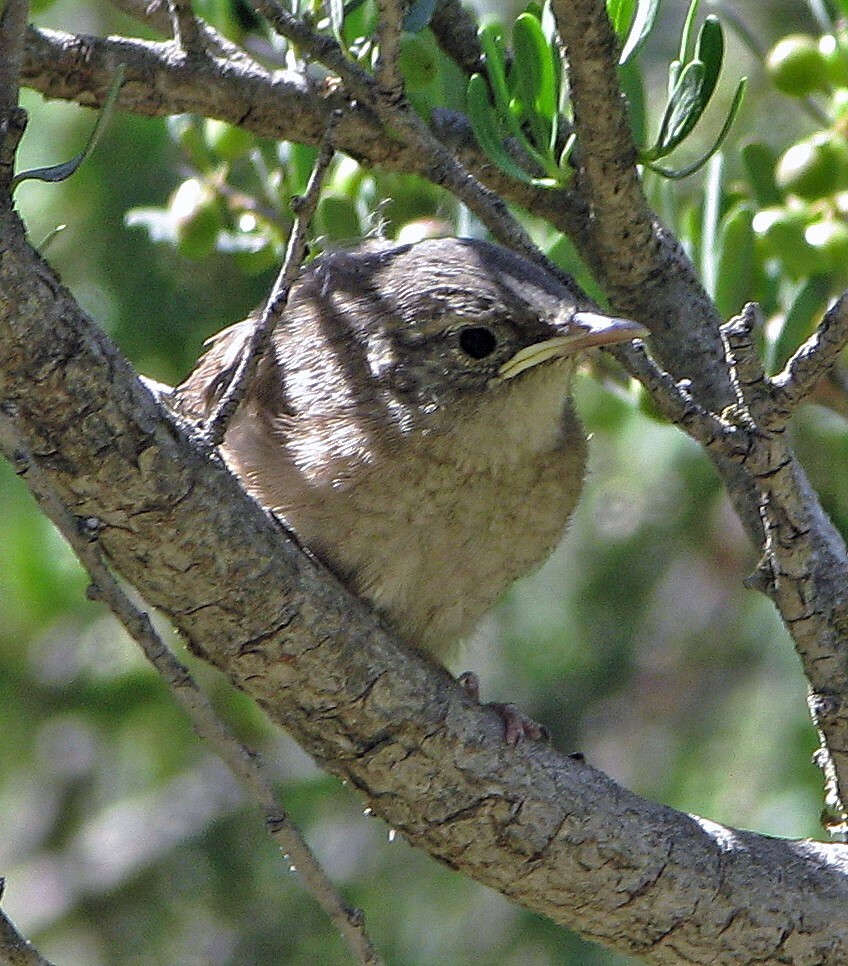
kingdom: Animalia
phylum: Chordata
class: Aves
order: Passeriformes
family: Troglodytidae
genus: Troglodytes
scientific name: Troglodytes aedon
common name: House wren
